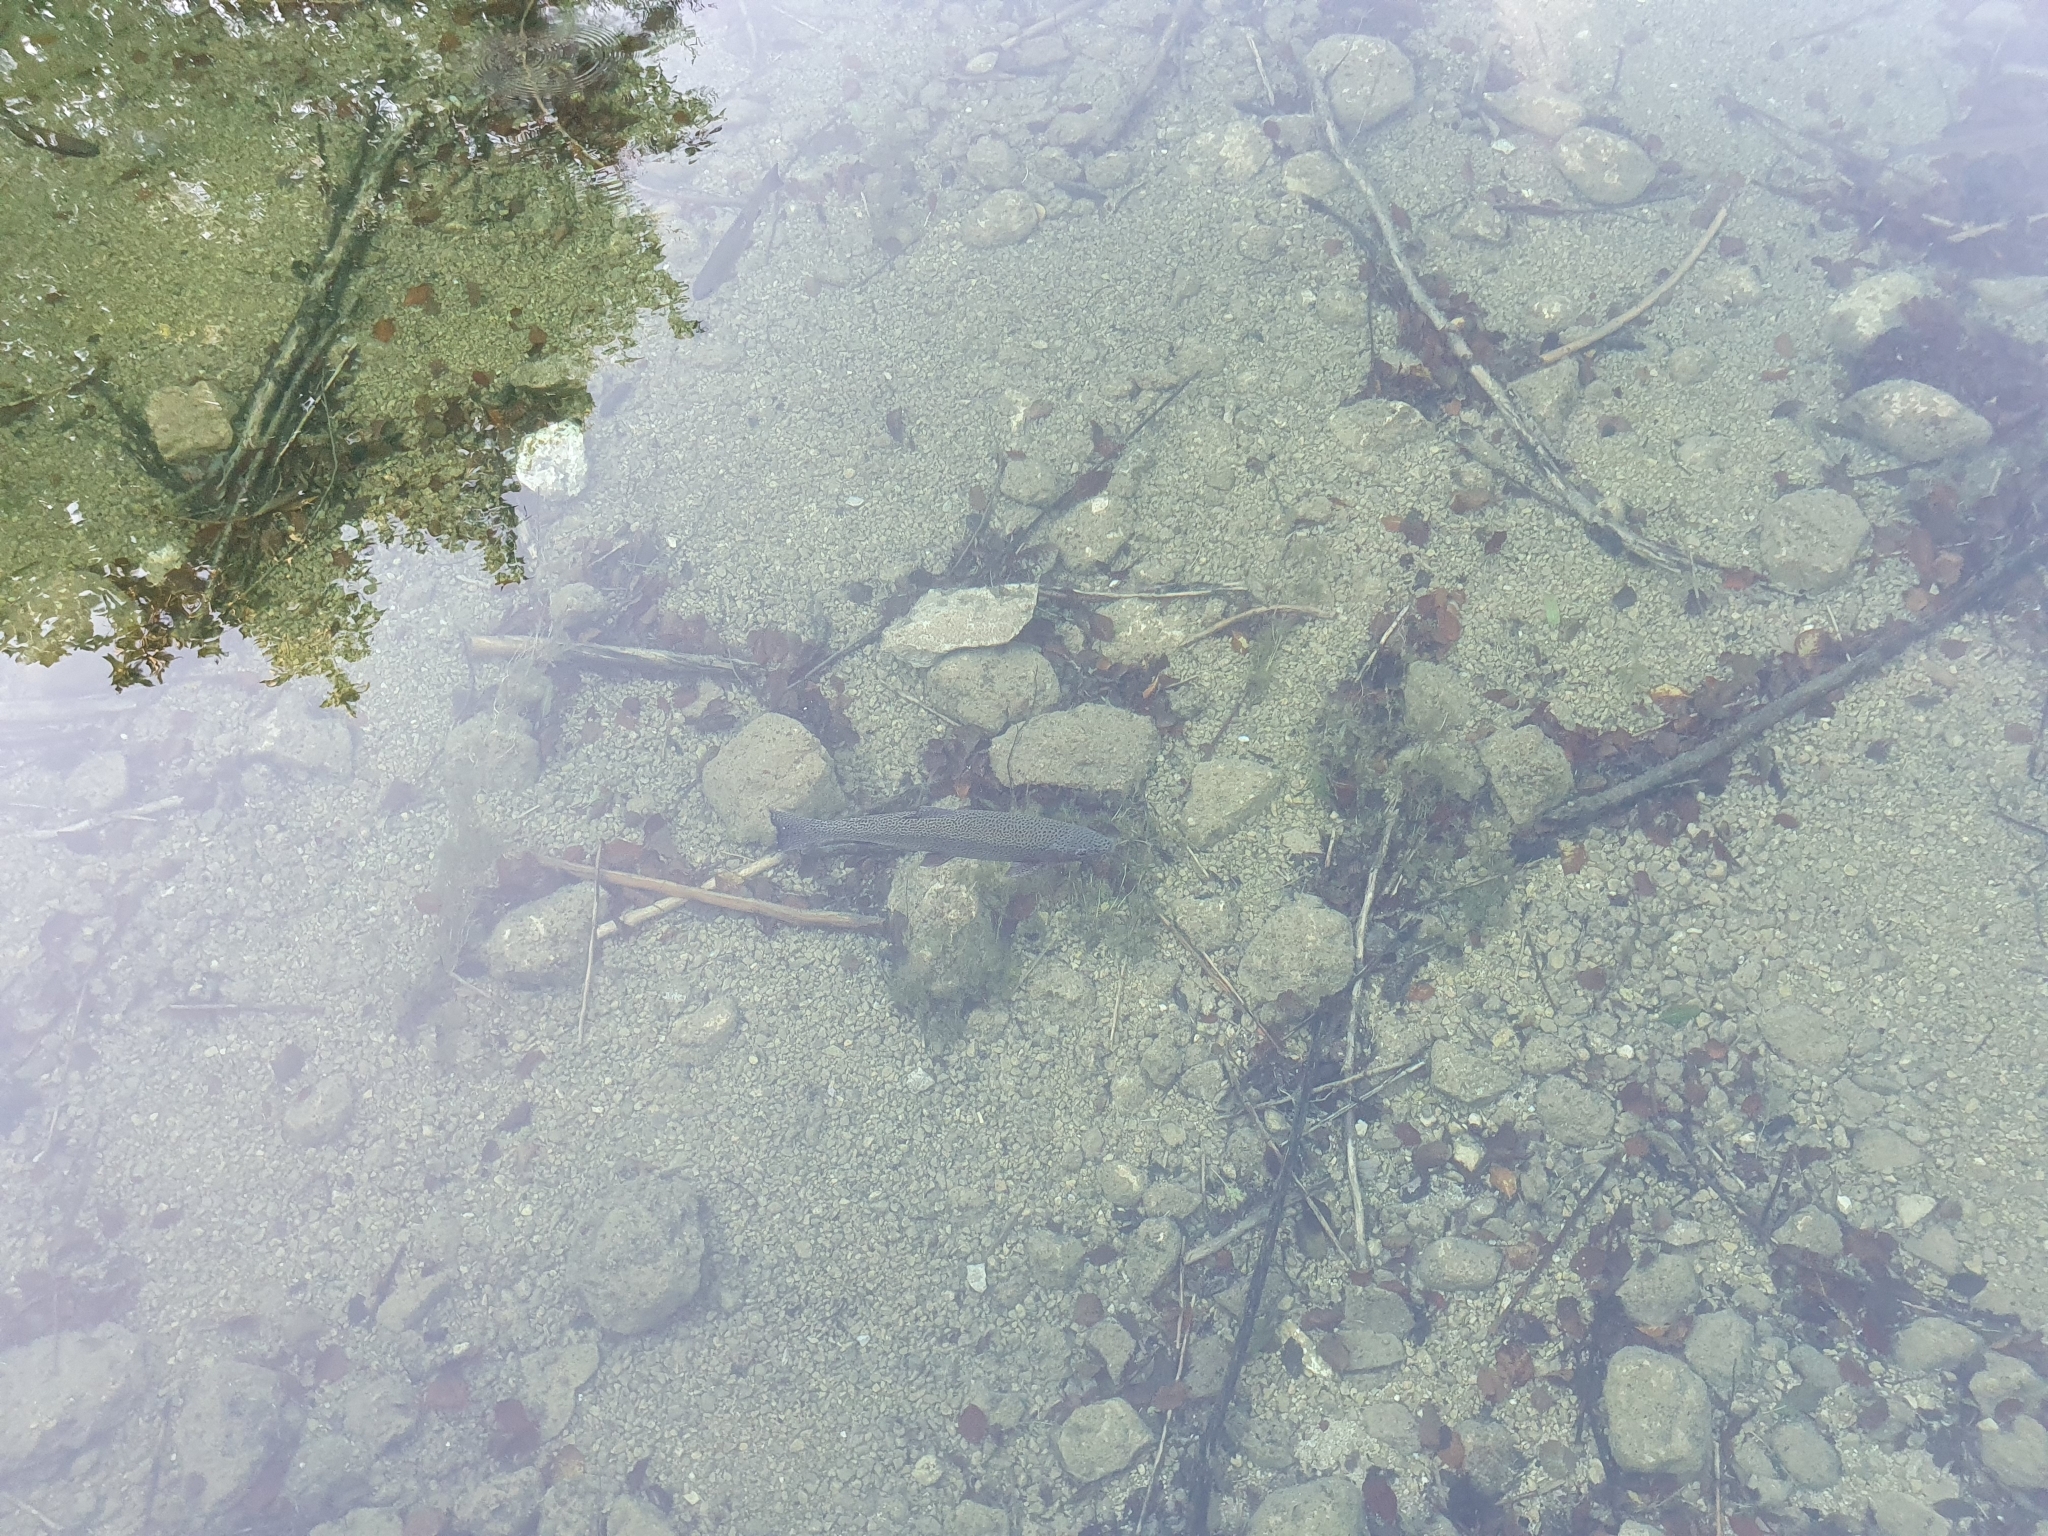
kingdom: Animalia
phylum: Chordata
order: Salmoniformes
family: Salmonidae
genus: Oncorhynchus
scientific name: Oncorhynchus mykiss
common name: Rainbow trout
